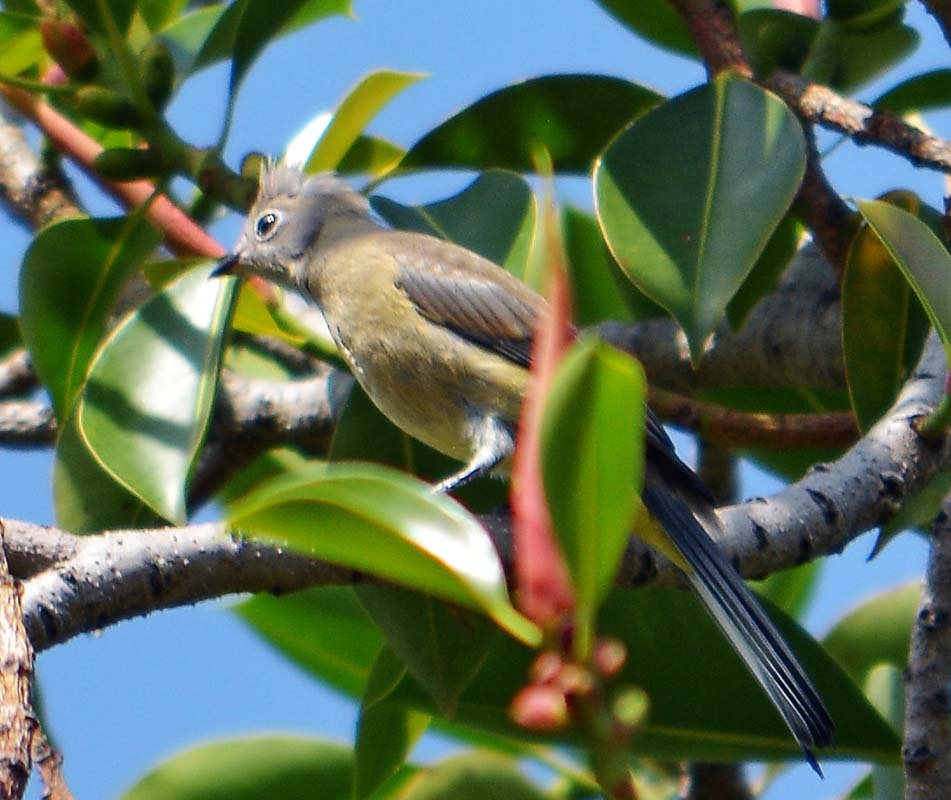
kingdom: Animalia
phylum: Chordata
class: Aves
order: Passeriformes
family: Ptilogonatidae
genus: Ptilogonys
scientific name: Ptilogonys cinereus
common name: Gray silky-flycatcher
